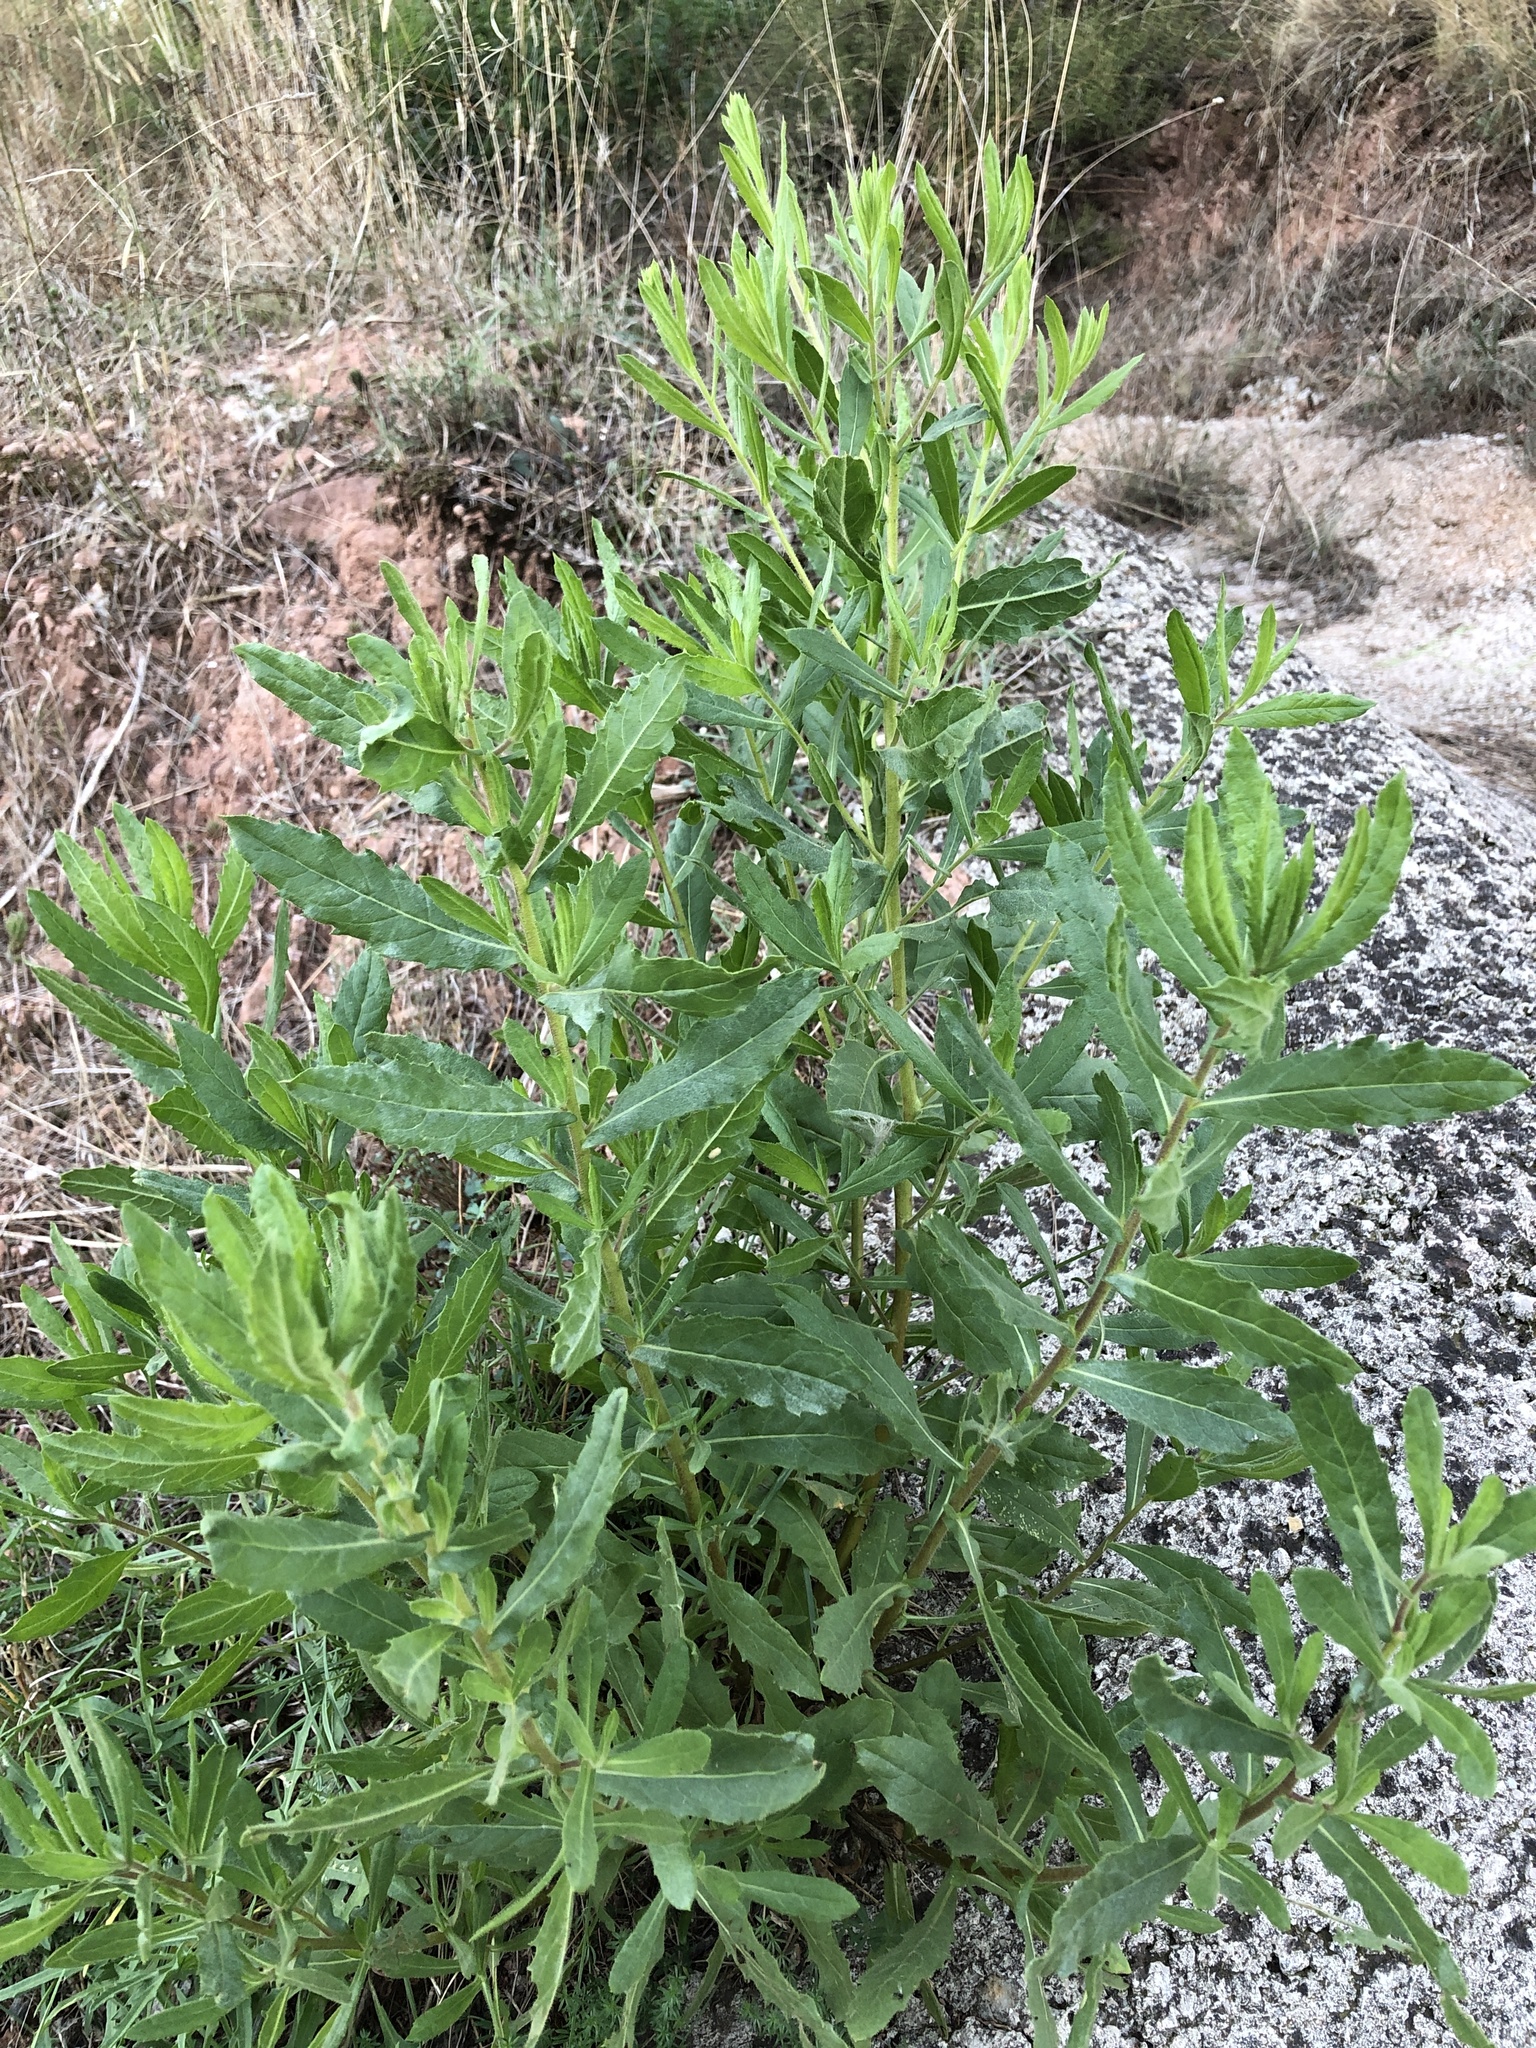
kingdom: Plantae
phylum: Tracheophyta
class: Magnoliopsida
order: Asterales
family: Asteraceae
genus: Dittrichia
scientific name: Dittrichia viscosa
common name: Woody fleabane
